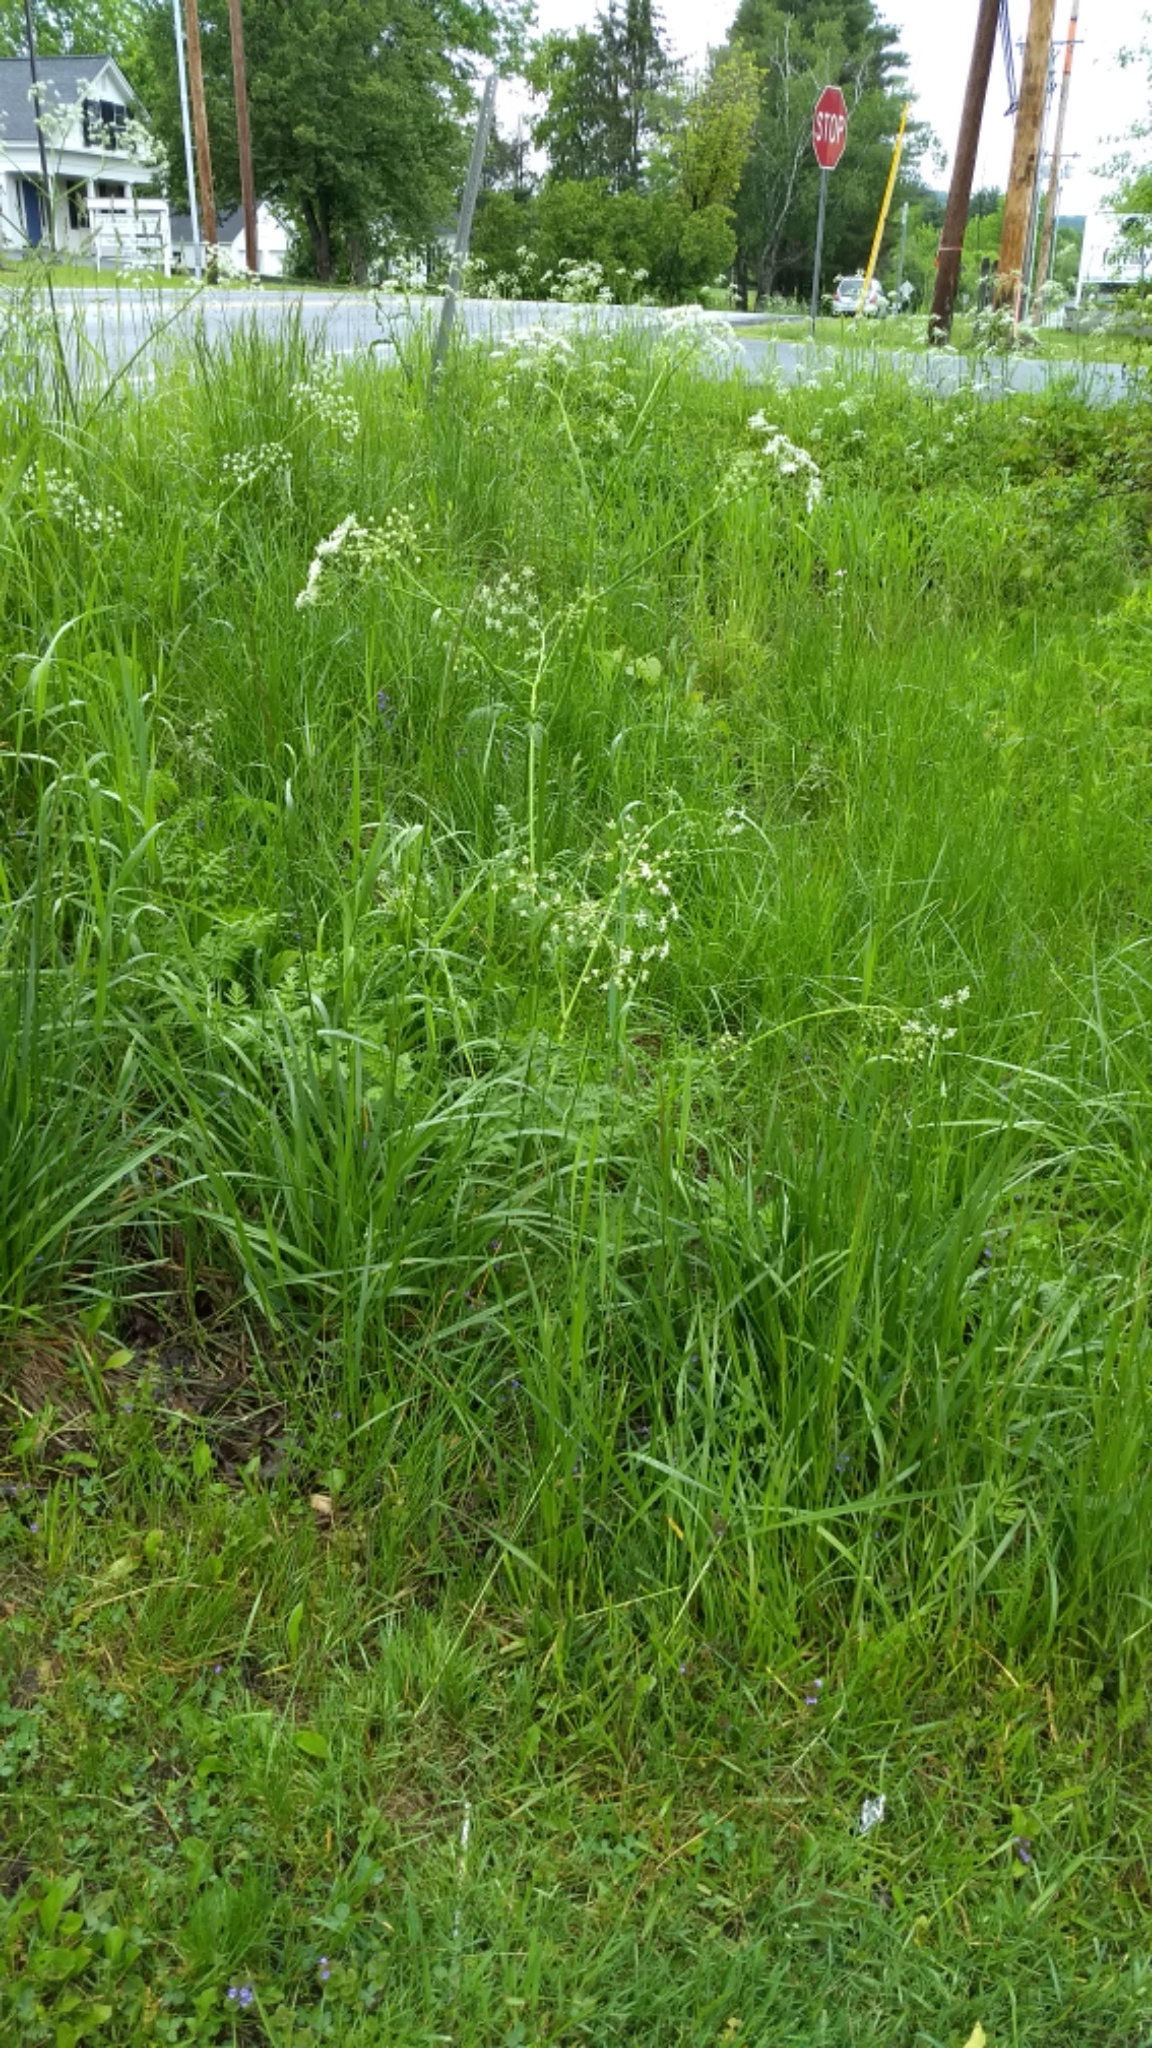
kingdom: Plantae
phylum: Tracheophyta
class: Magnoliopsida
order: Apiales
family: Apiaceae
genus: Anthriscus
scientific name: Anthriscus sylvestris
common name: Cow parsley
